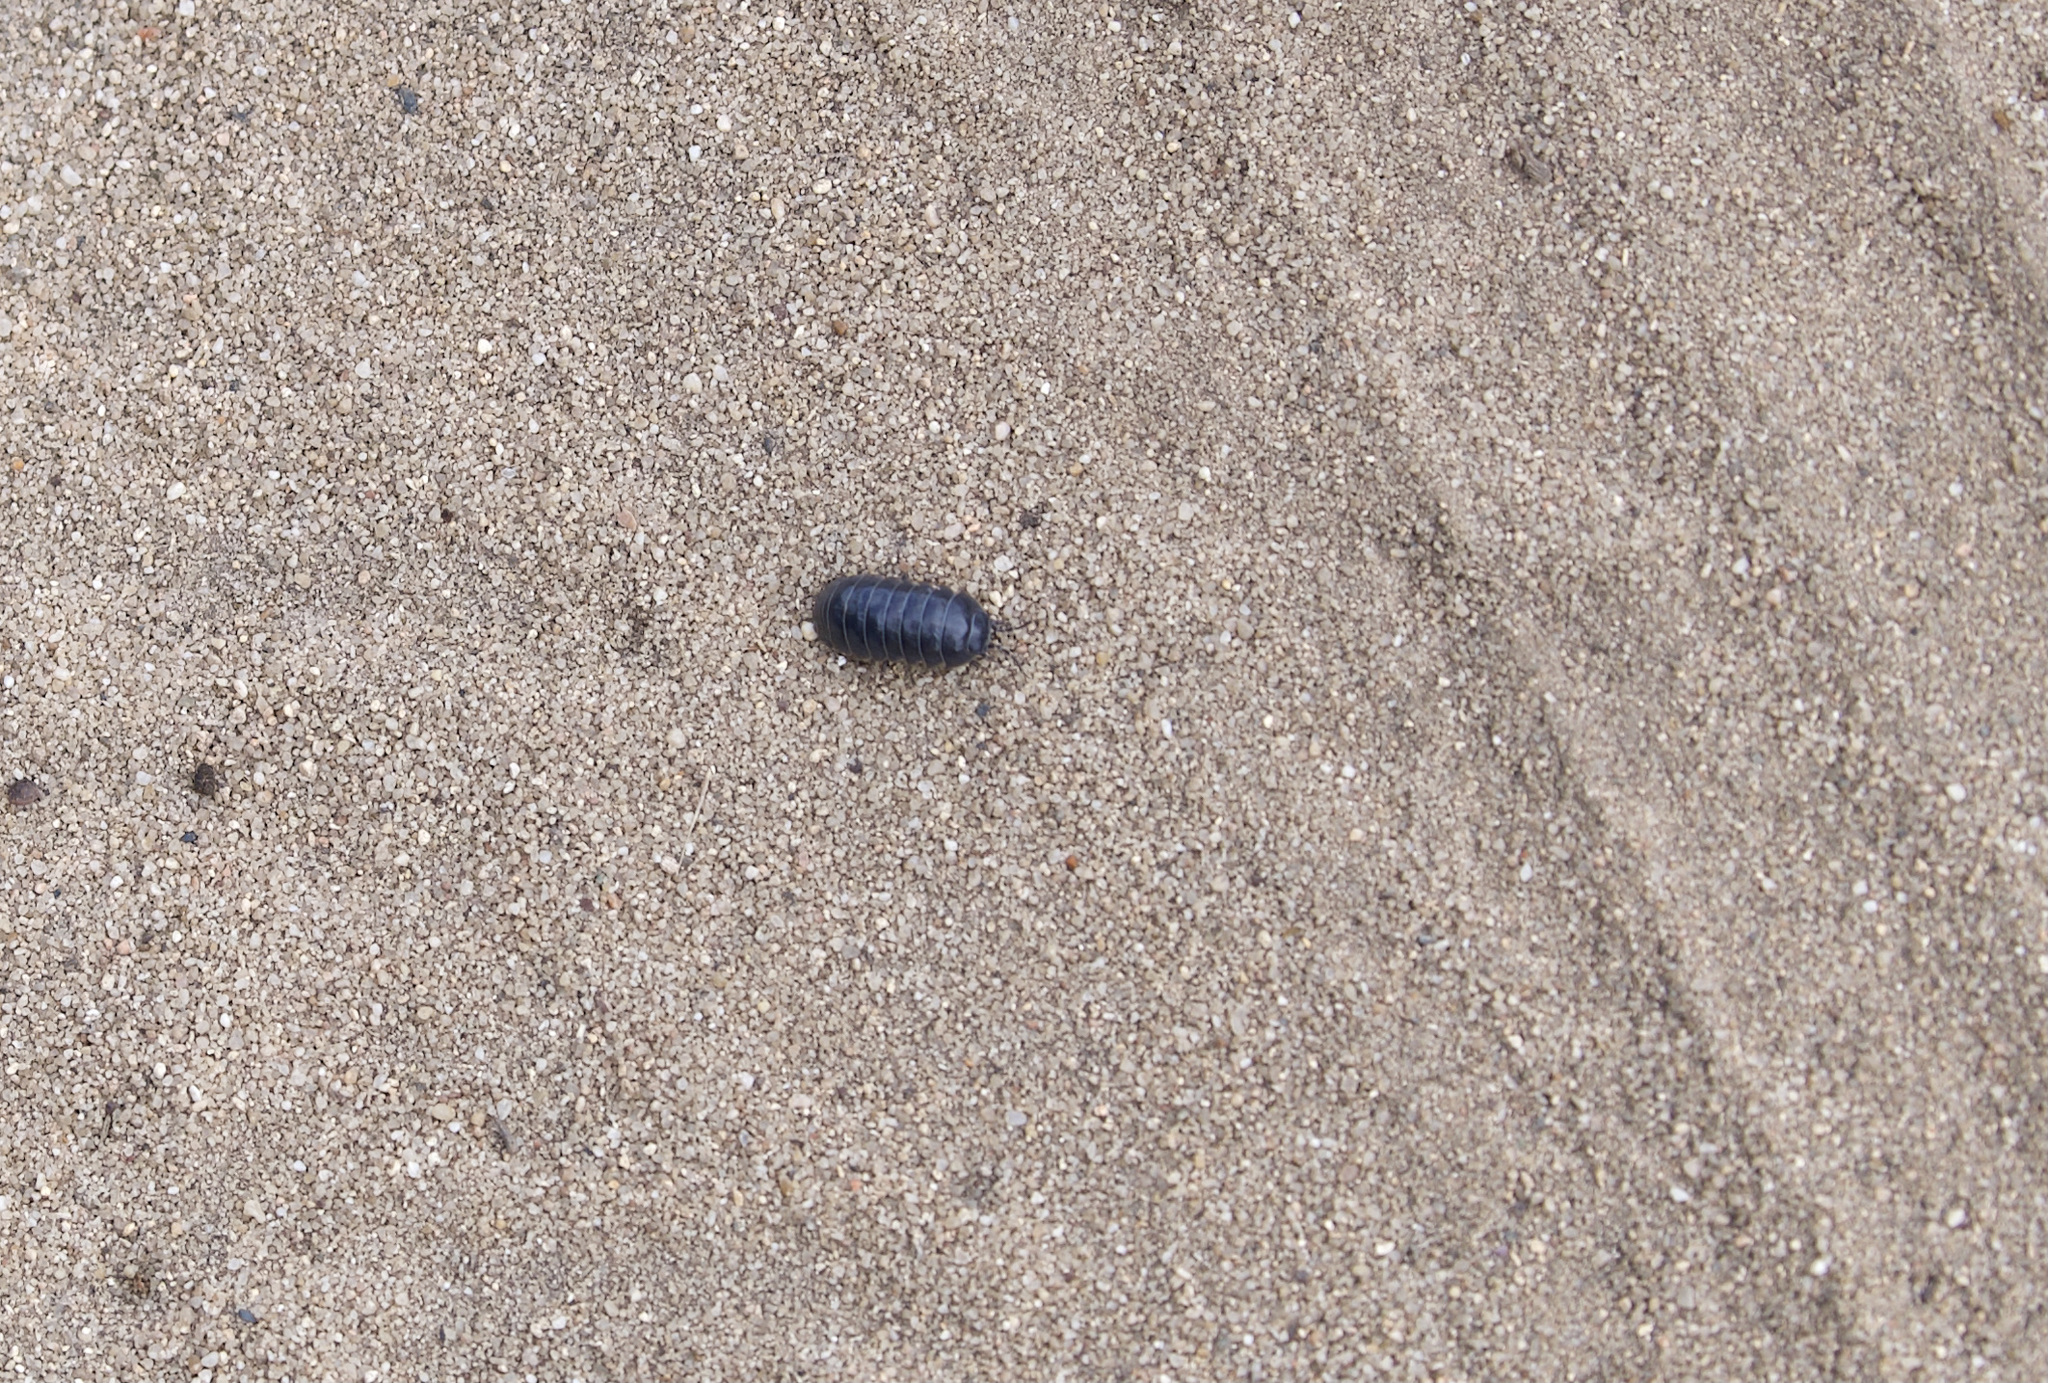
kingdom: Animalia
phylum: Arthropoda
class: Malacostraca
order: Isopoda
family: Armadillidiidae
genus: Armadillidium
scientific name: Armadillidium vulgare
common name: Common pill woodlouse
